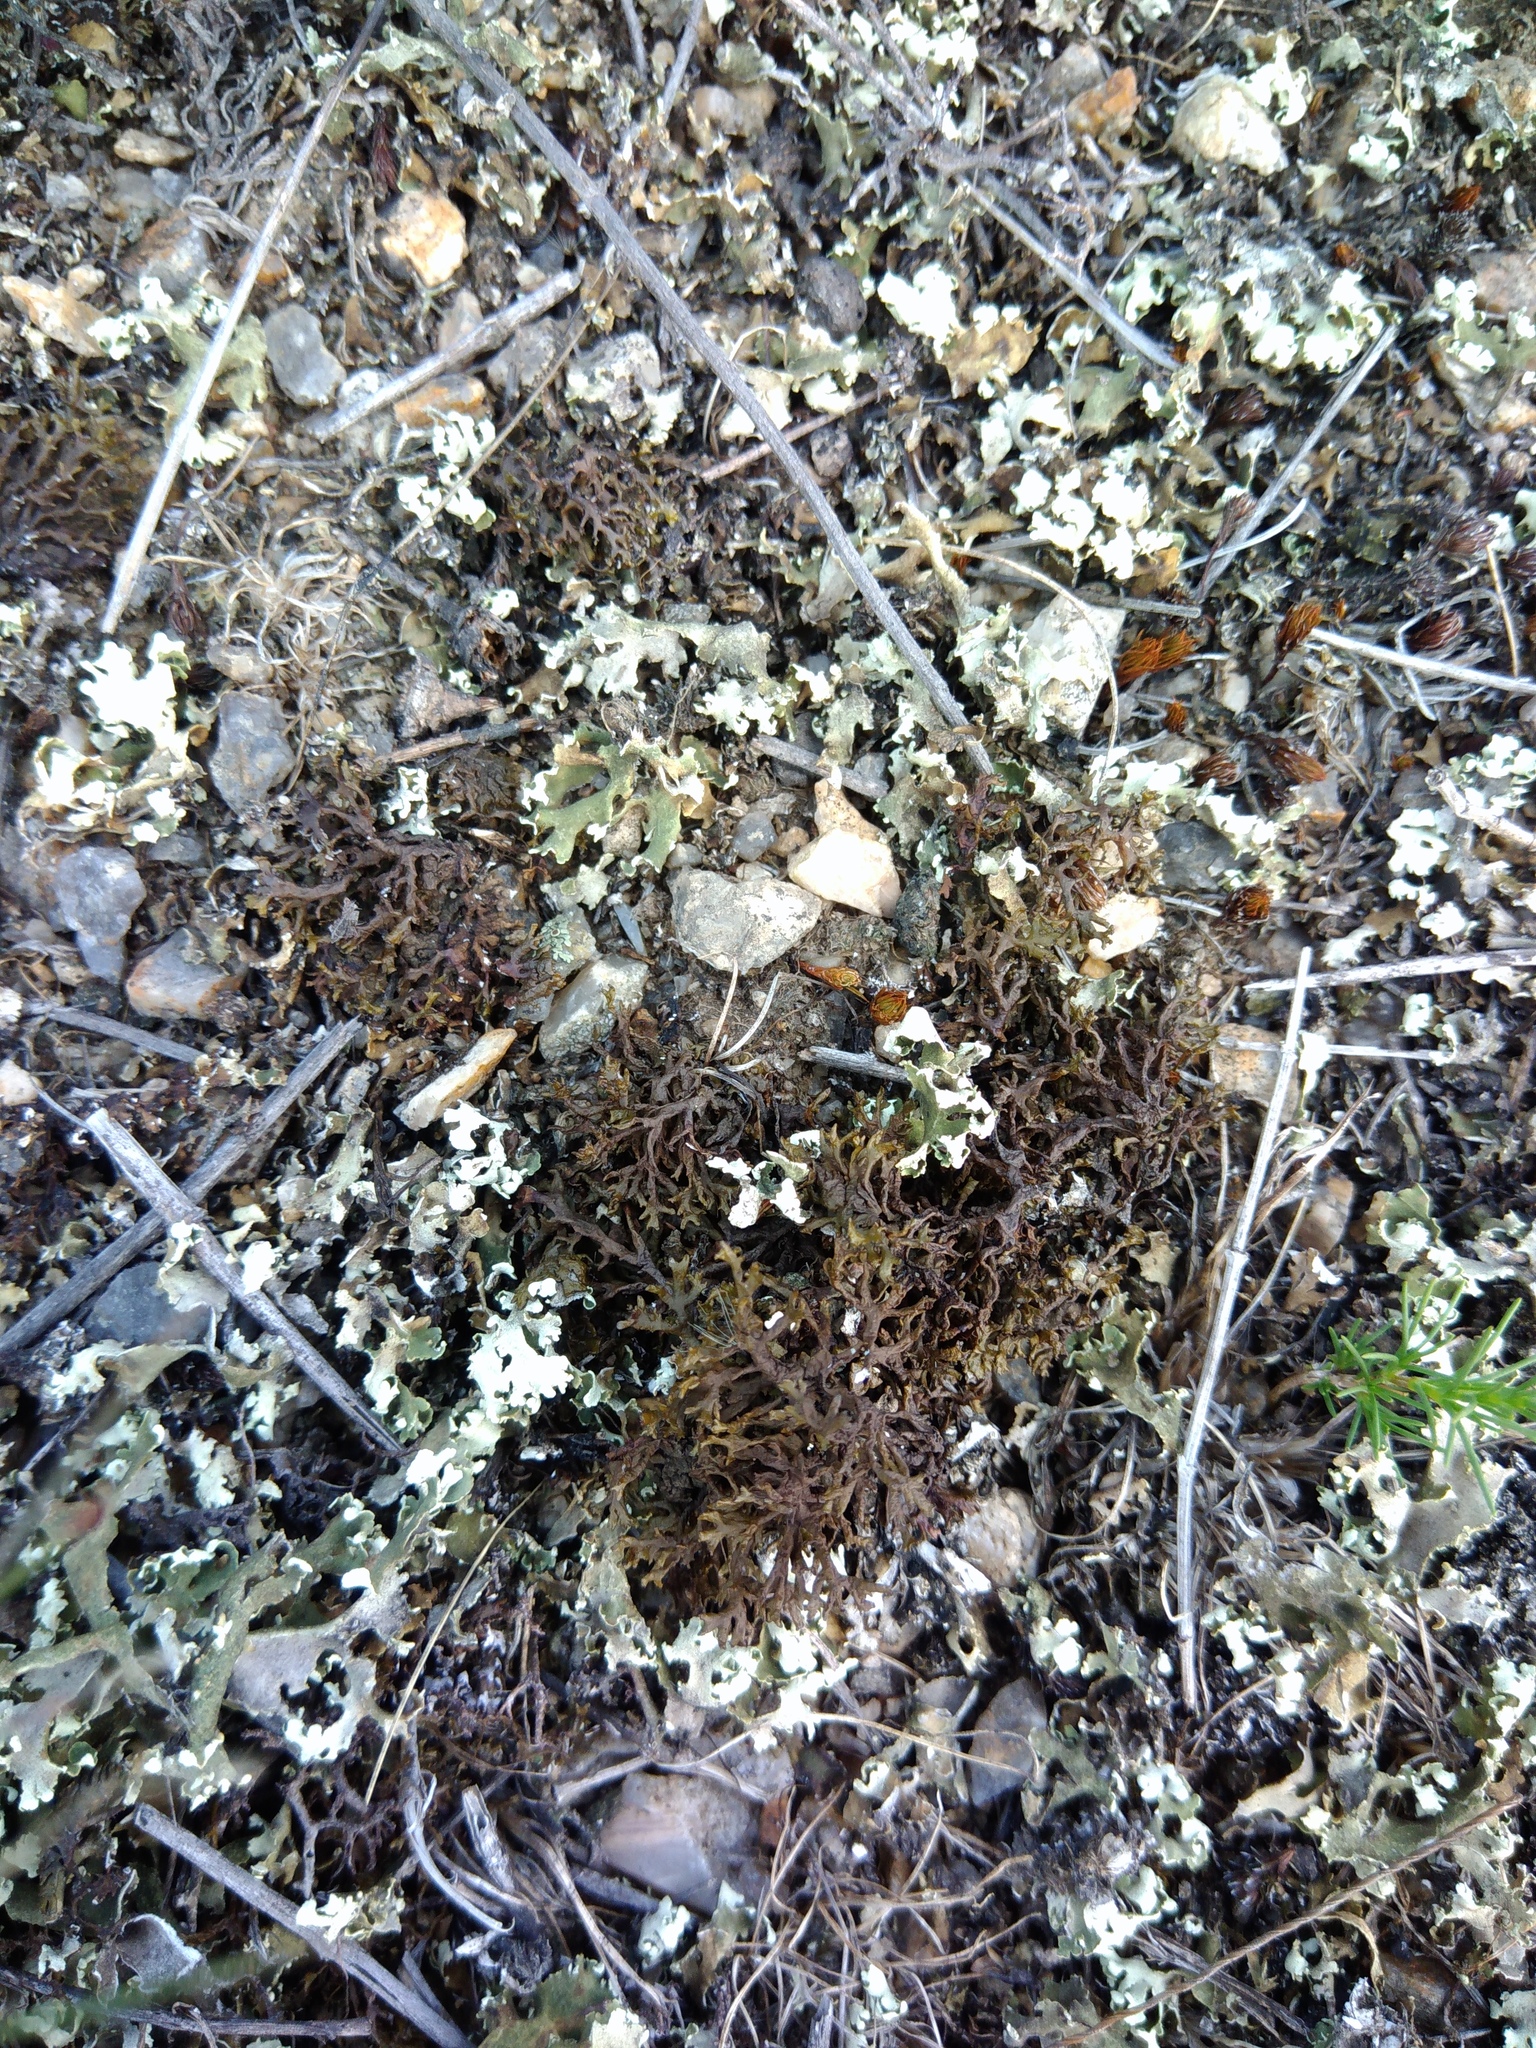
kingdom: Fungi
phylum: Ascomycota
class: Lecanoromycetes
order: Lecanorales
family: Parmeliaceae
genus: Xanthoparmelia
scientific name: Xanthoparmelia pokornyi
